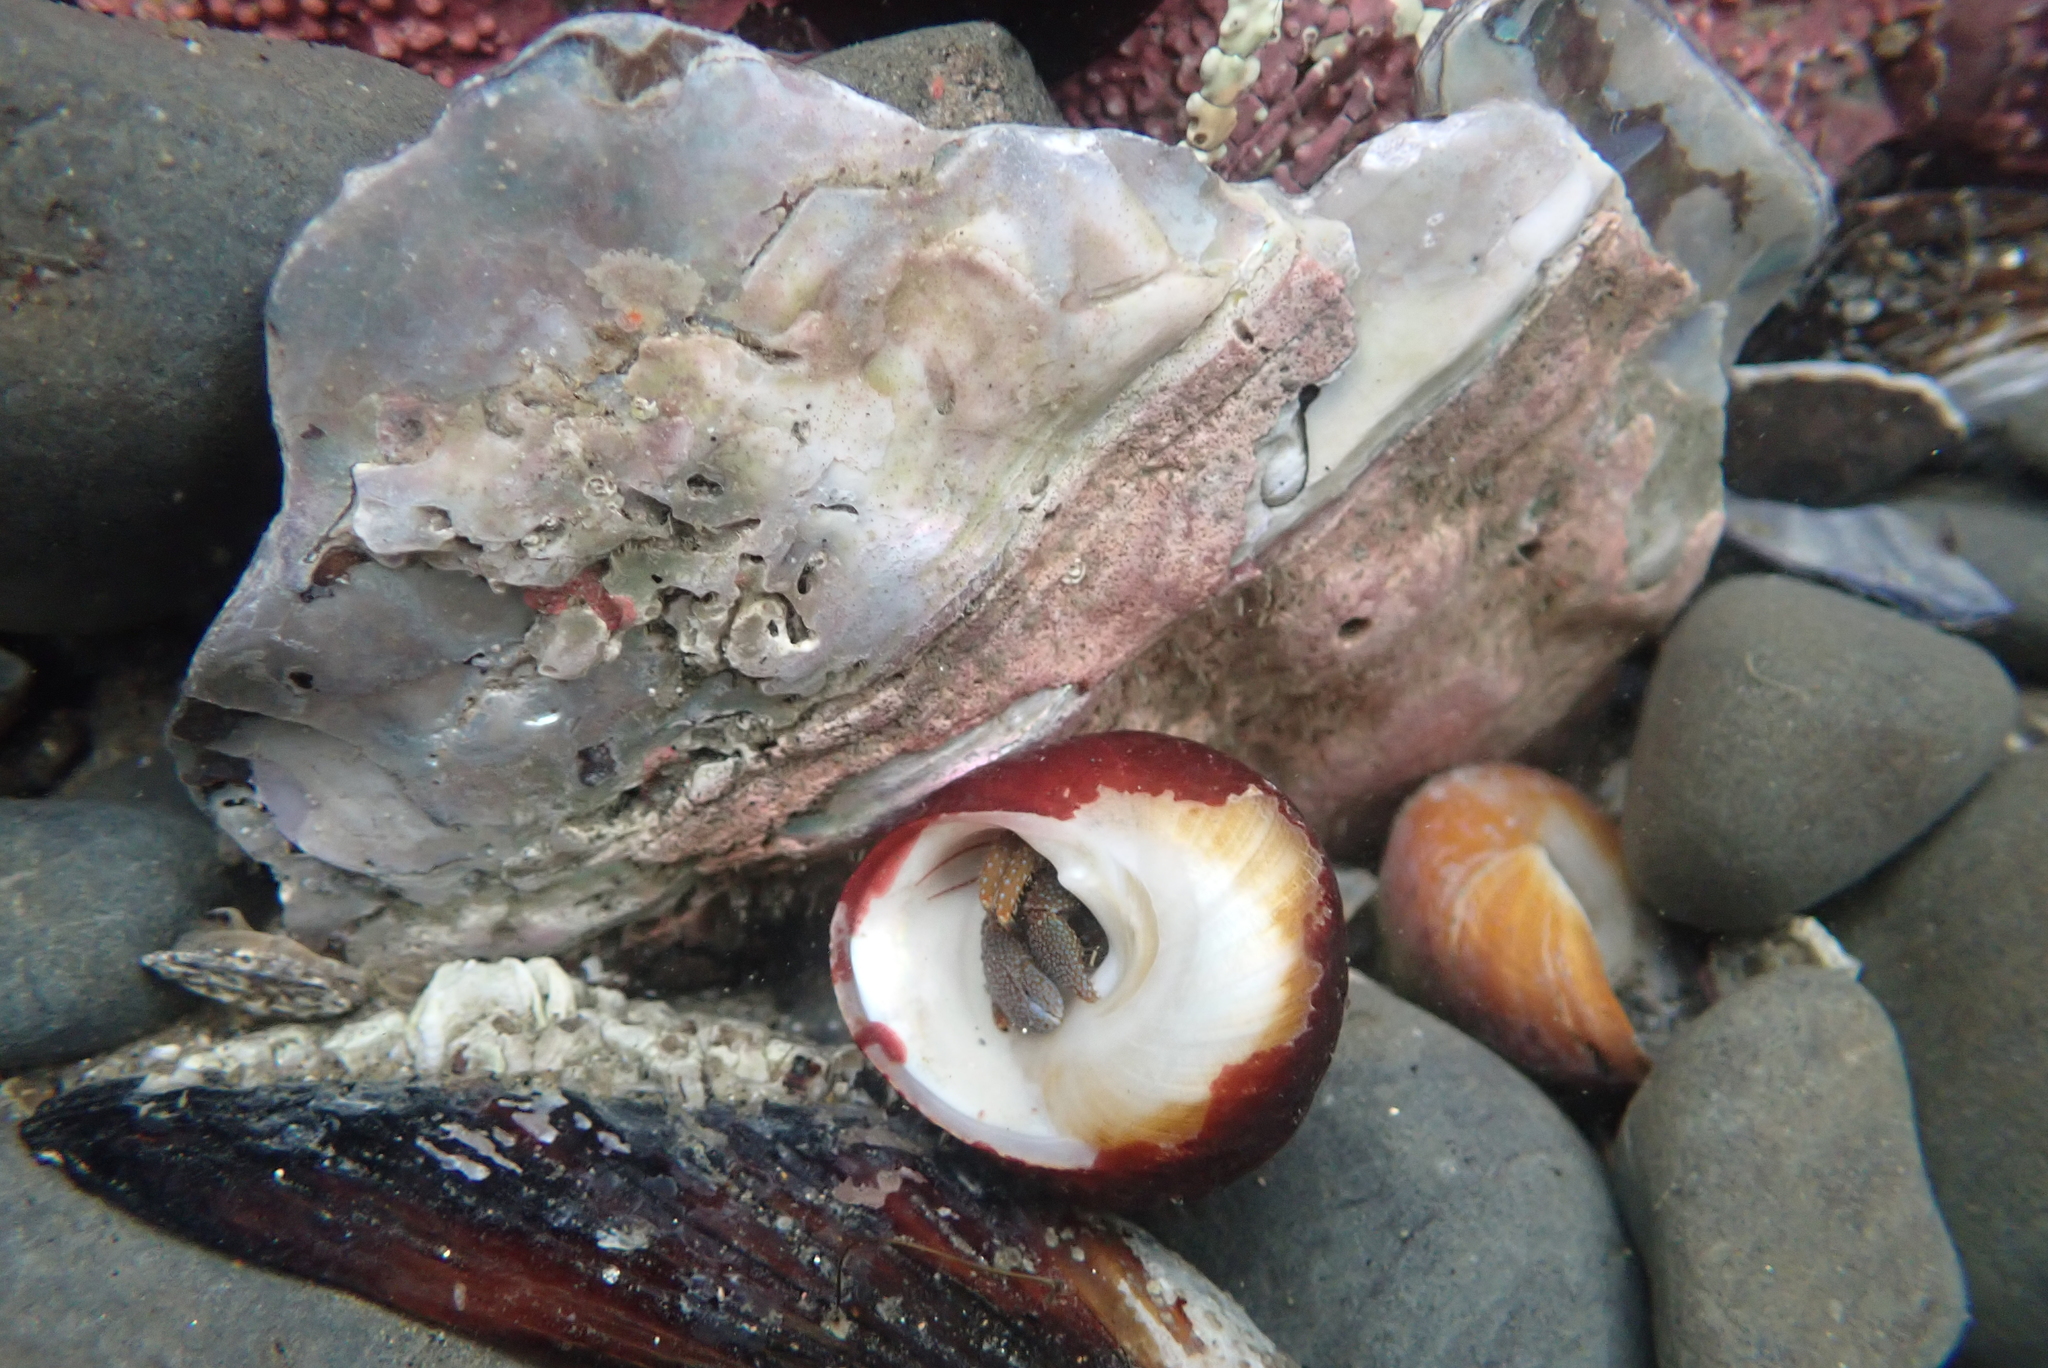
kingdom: Animalia
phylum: Arthropoda
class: Malacostraca
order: Decapoda
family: Paguridae
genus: Pagurus
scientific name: Pagurus granosimanus
